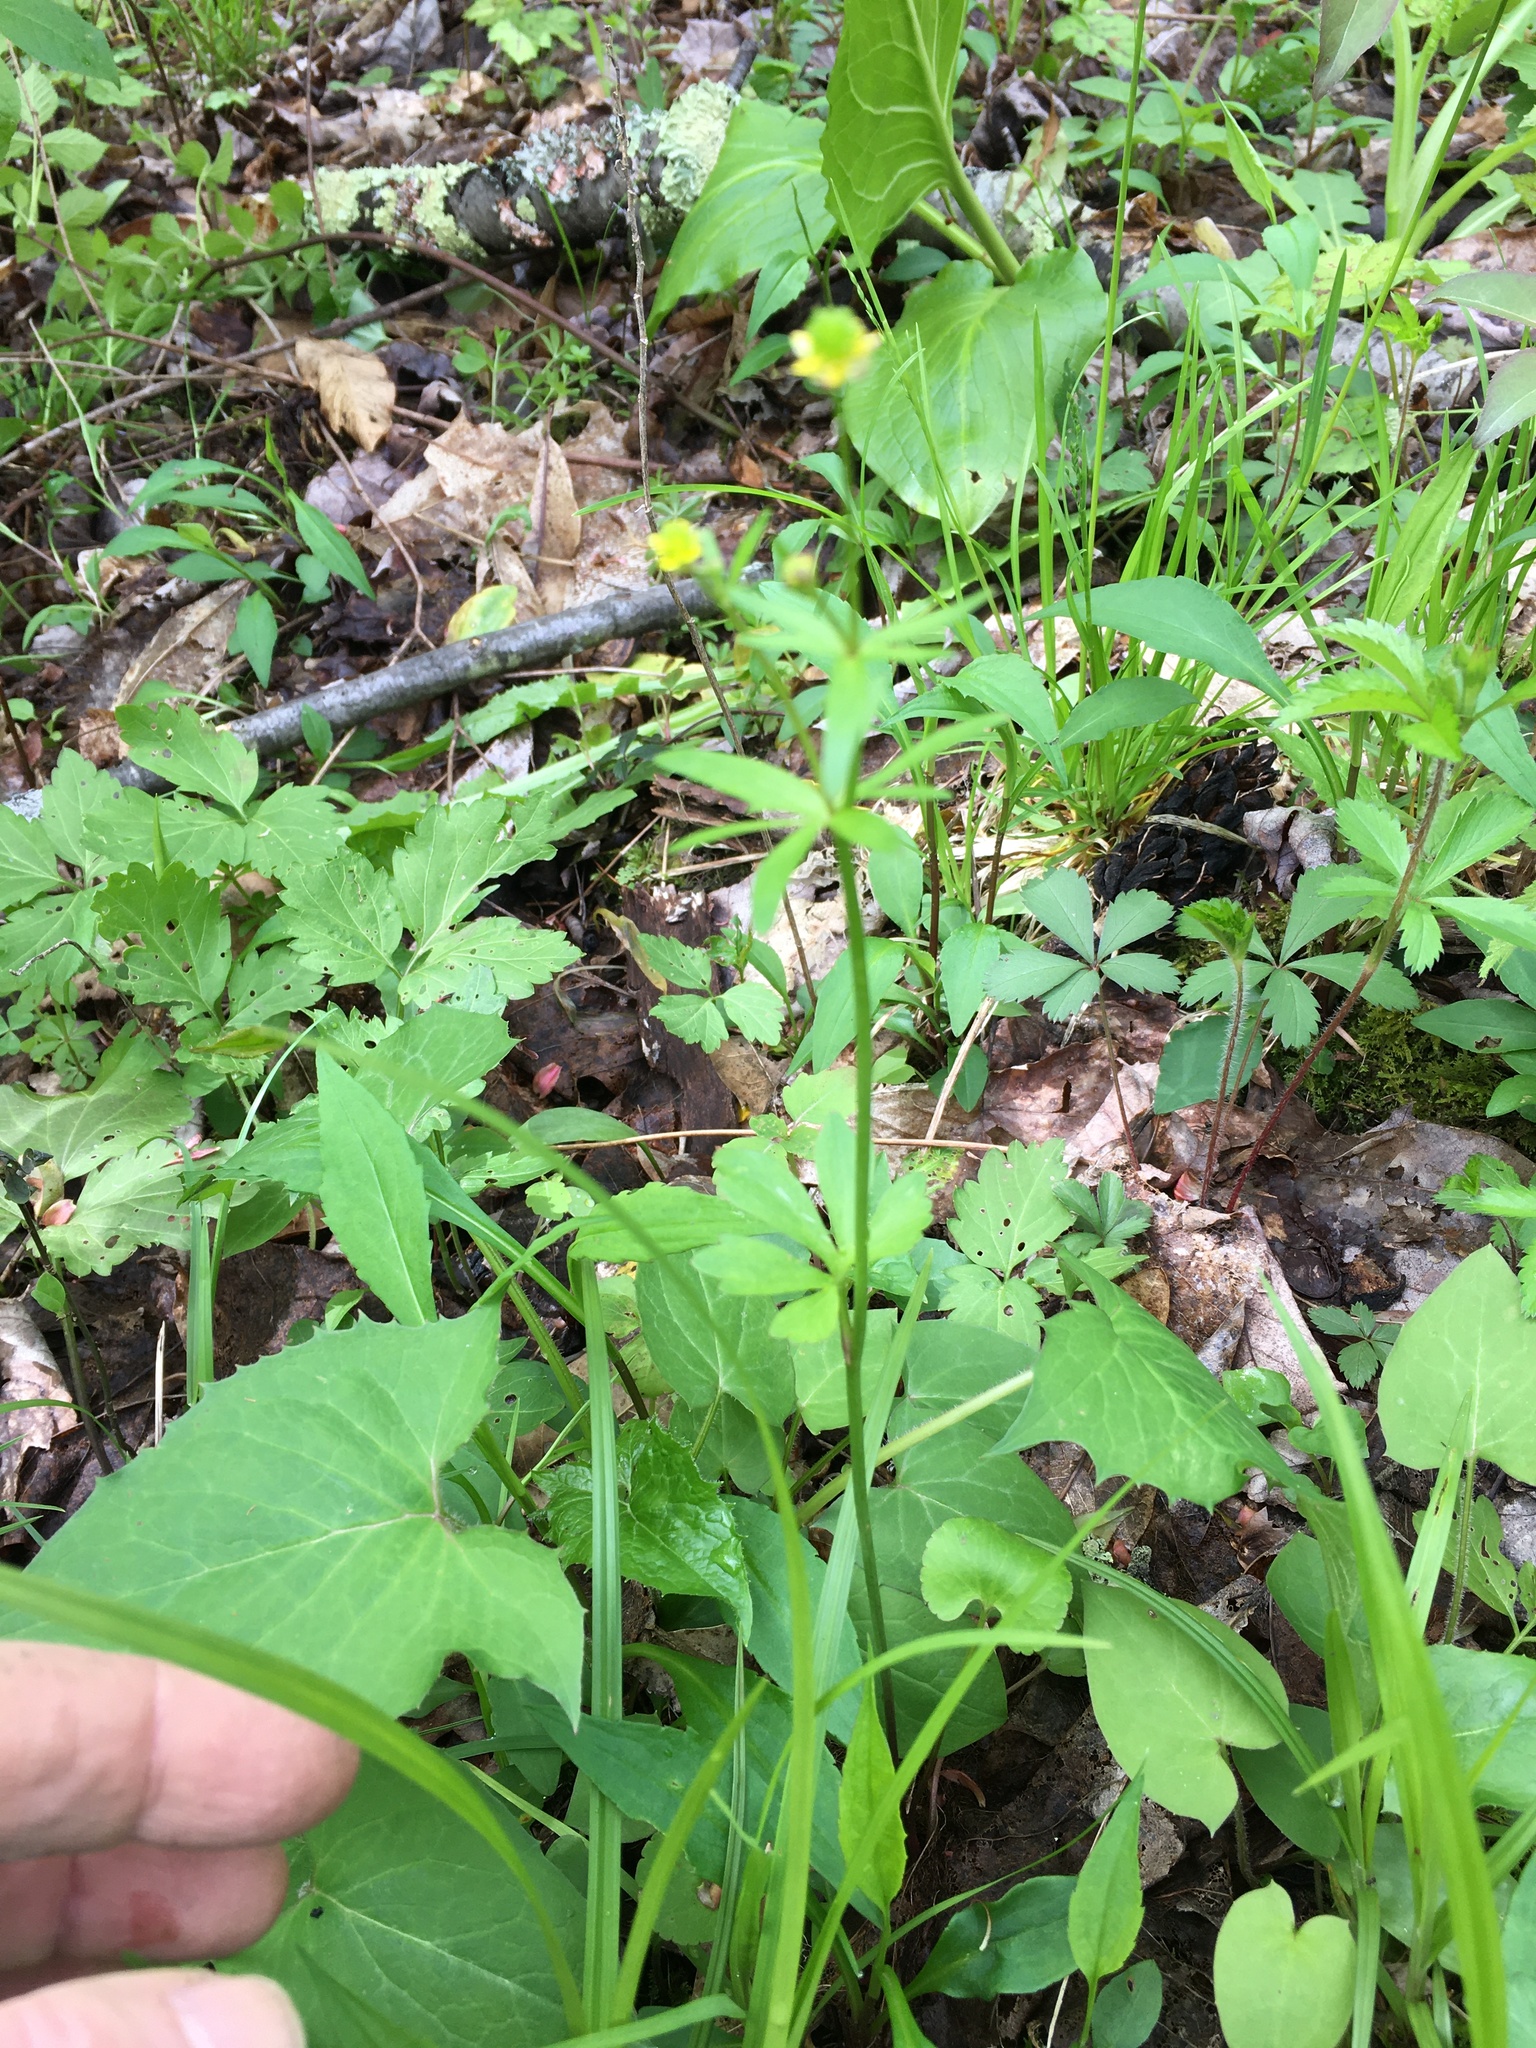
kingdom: Plantae
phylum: Tracheophyta
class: Magnoliopsida
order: Ranunculales
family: Ranunculaceae
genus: Ranunculus
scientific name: Ranunculus abortivus
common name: Early wood buttercup
